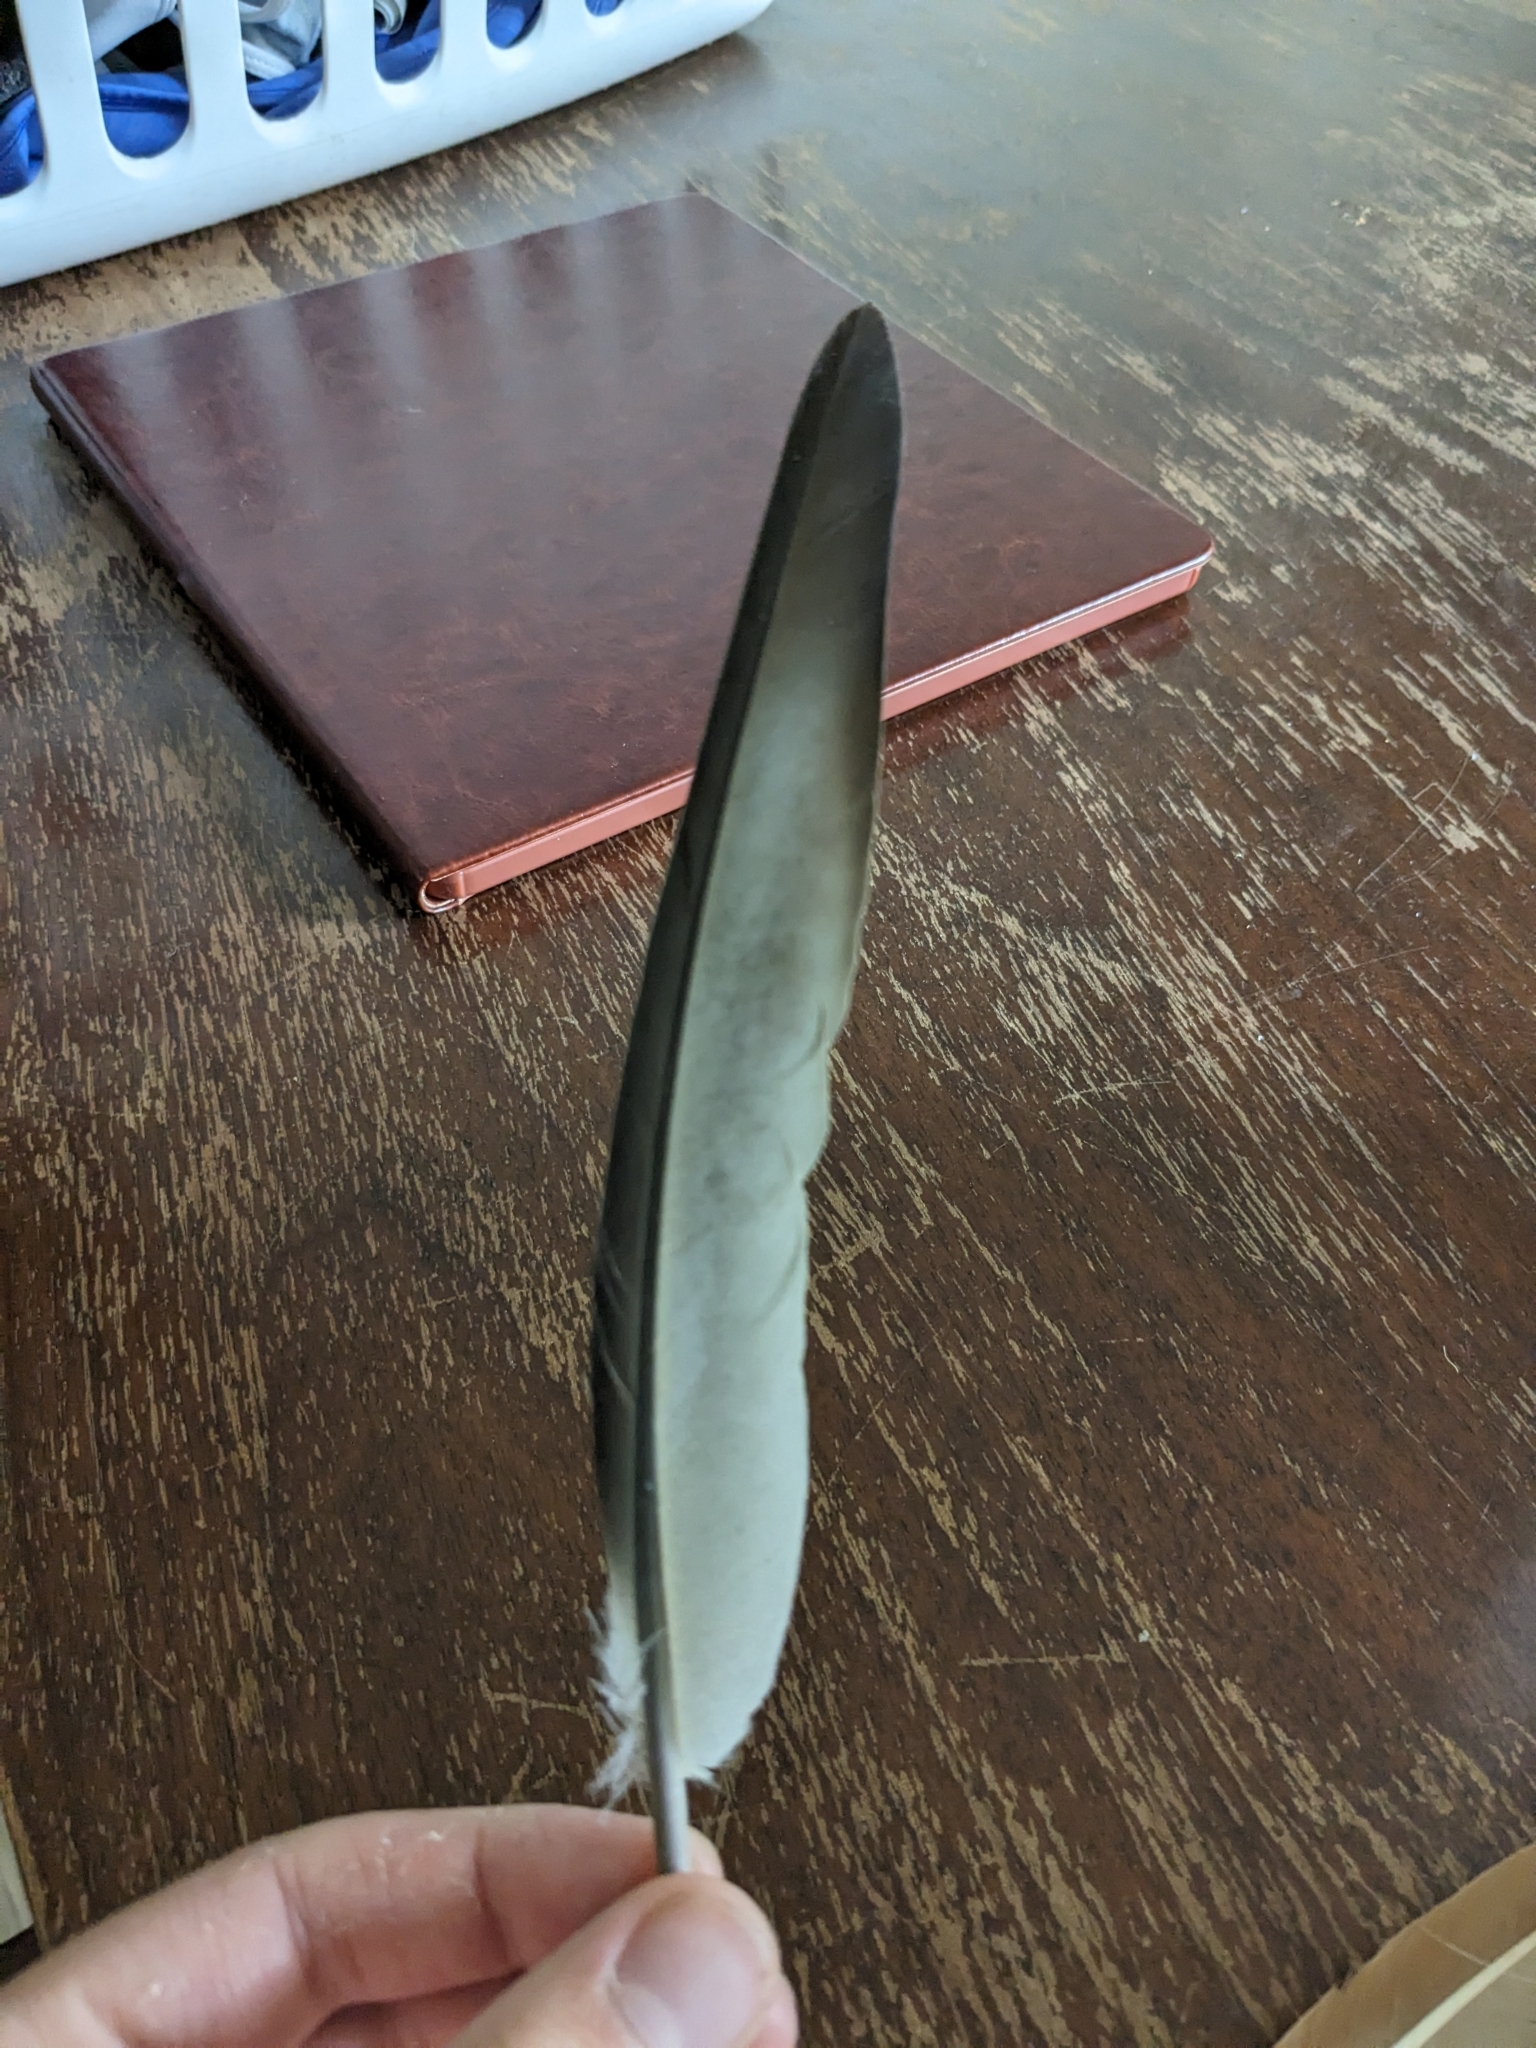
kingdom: Animalia
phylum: Chordata
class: Aves
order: Columbiformes
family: Columbidae
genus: Columba
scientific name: Columba livia
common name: Rock pigeon
